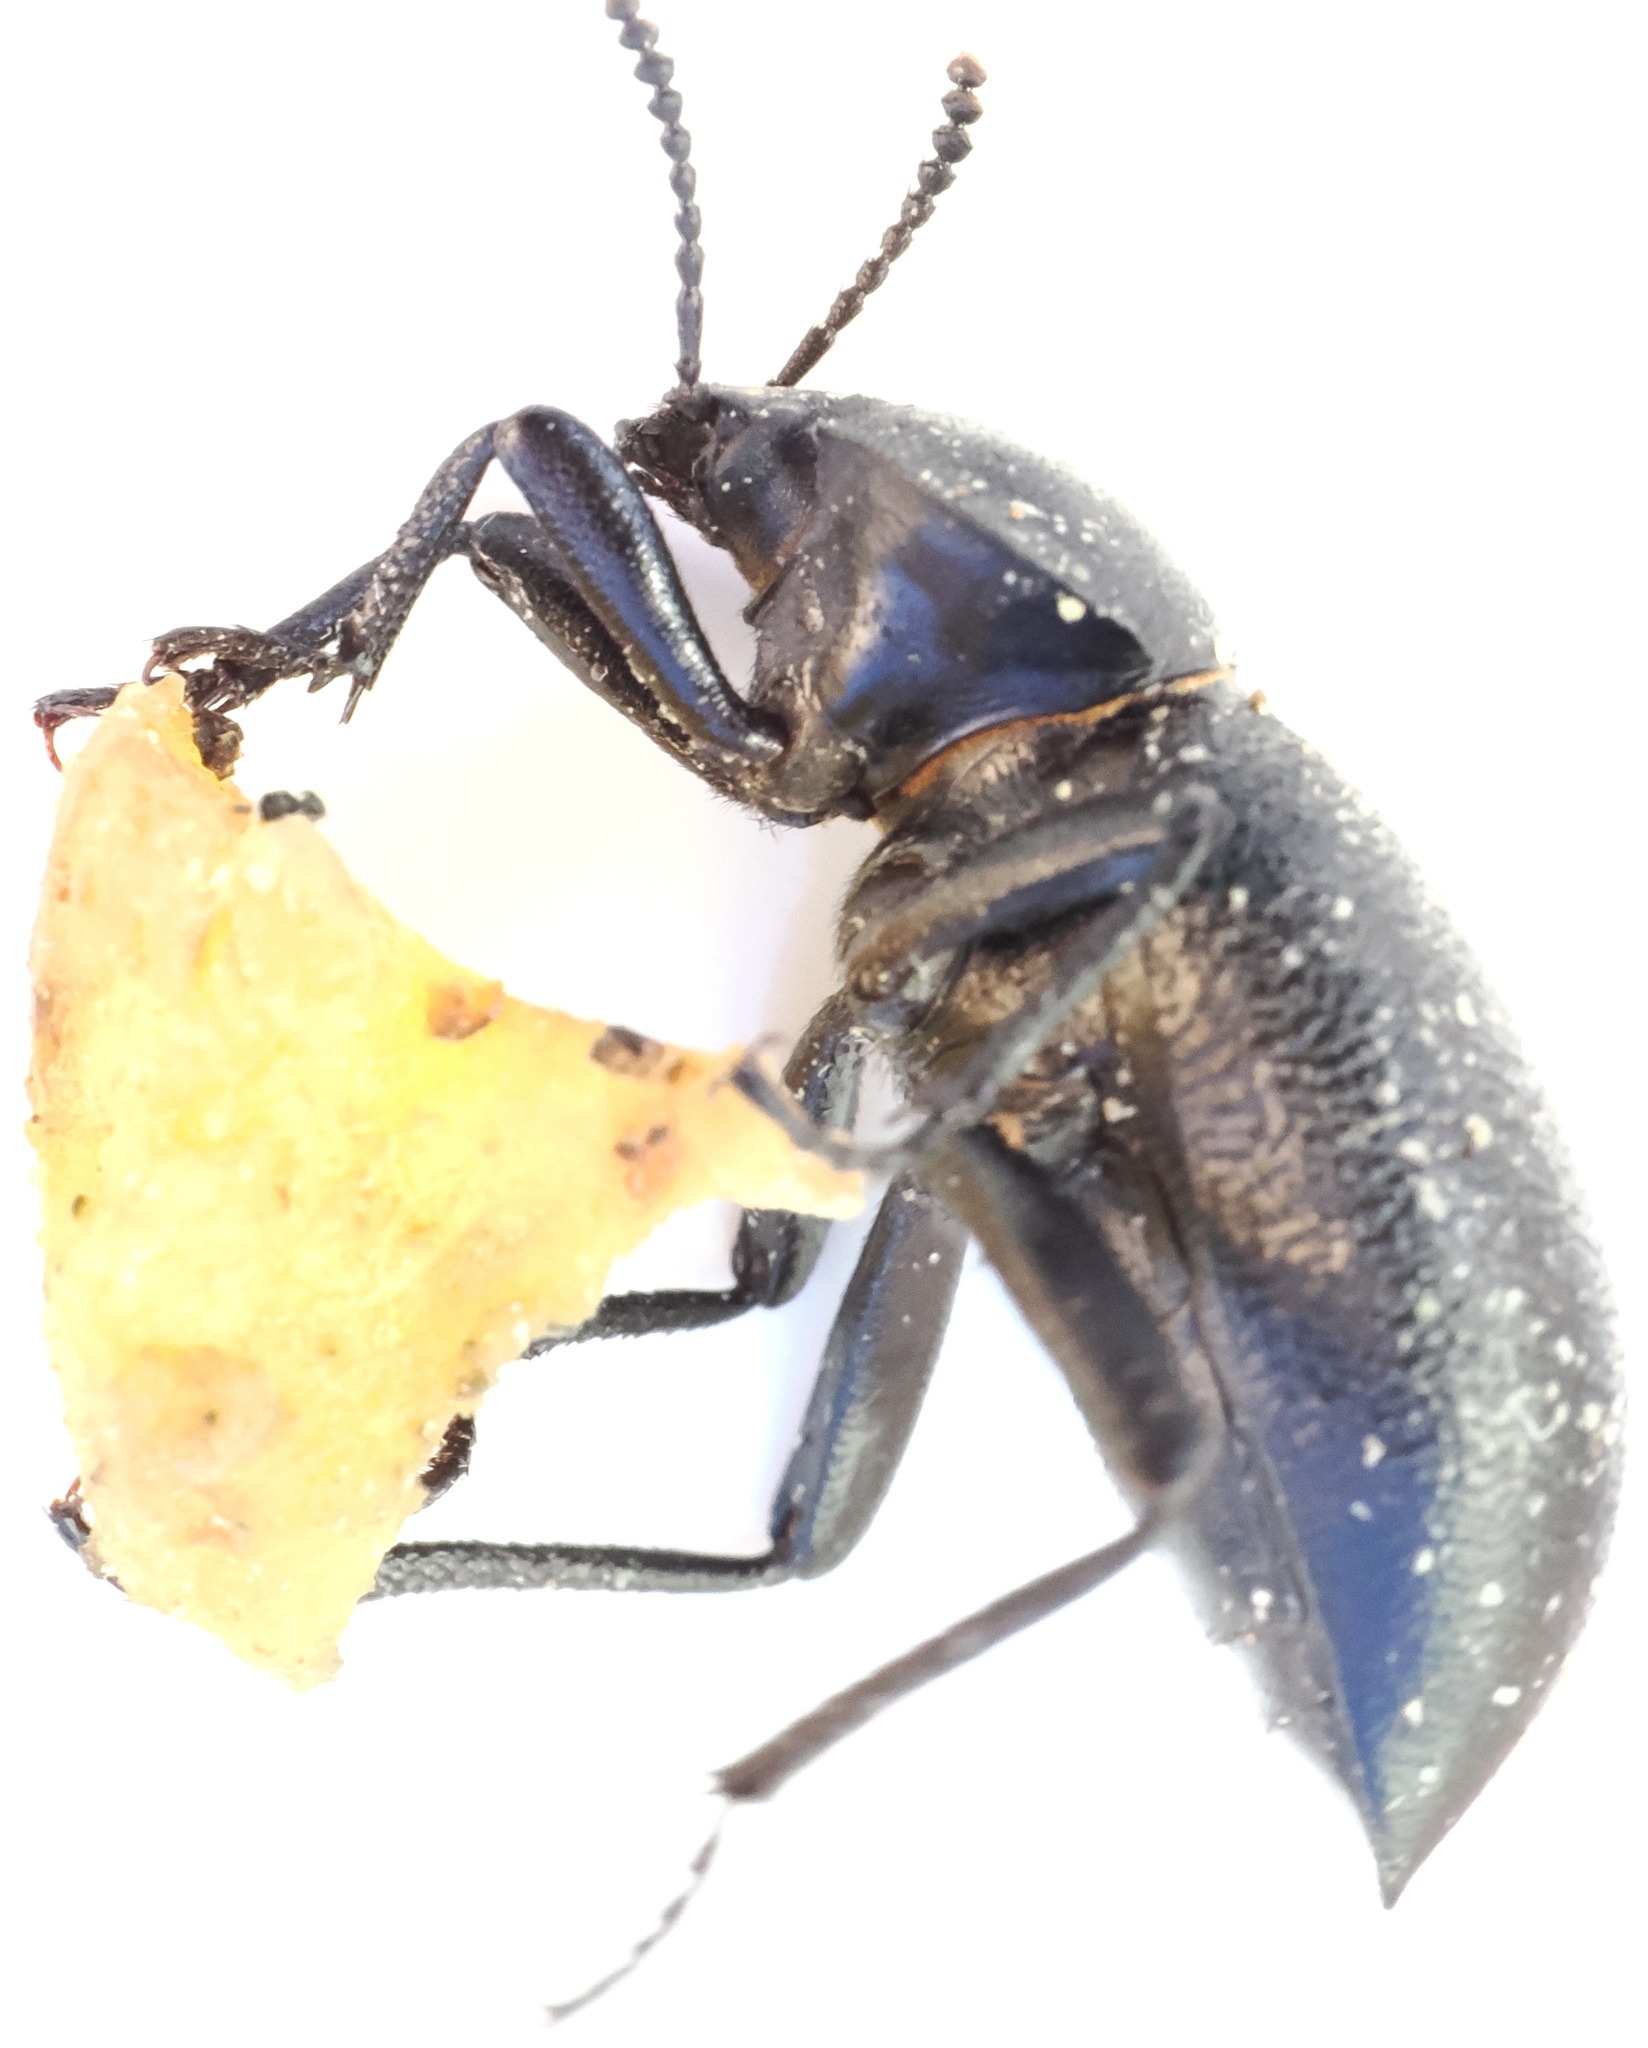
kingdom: Animalia
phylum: Arthropoda
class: Insecta
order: Coleoptera
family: Tenebrionidae
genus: Eleodes
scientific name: Eleodes marginata
